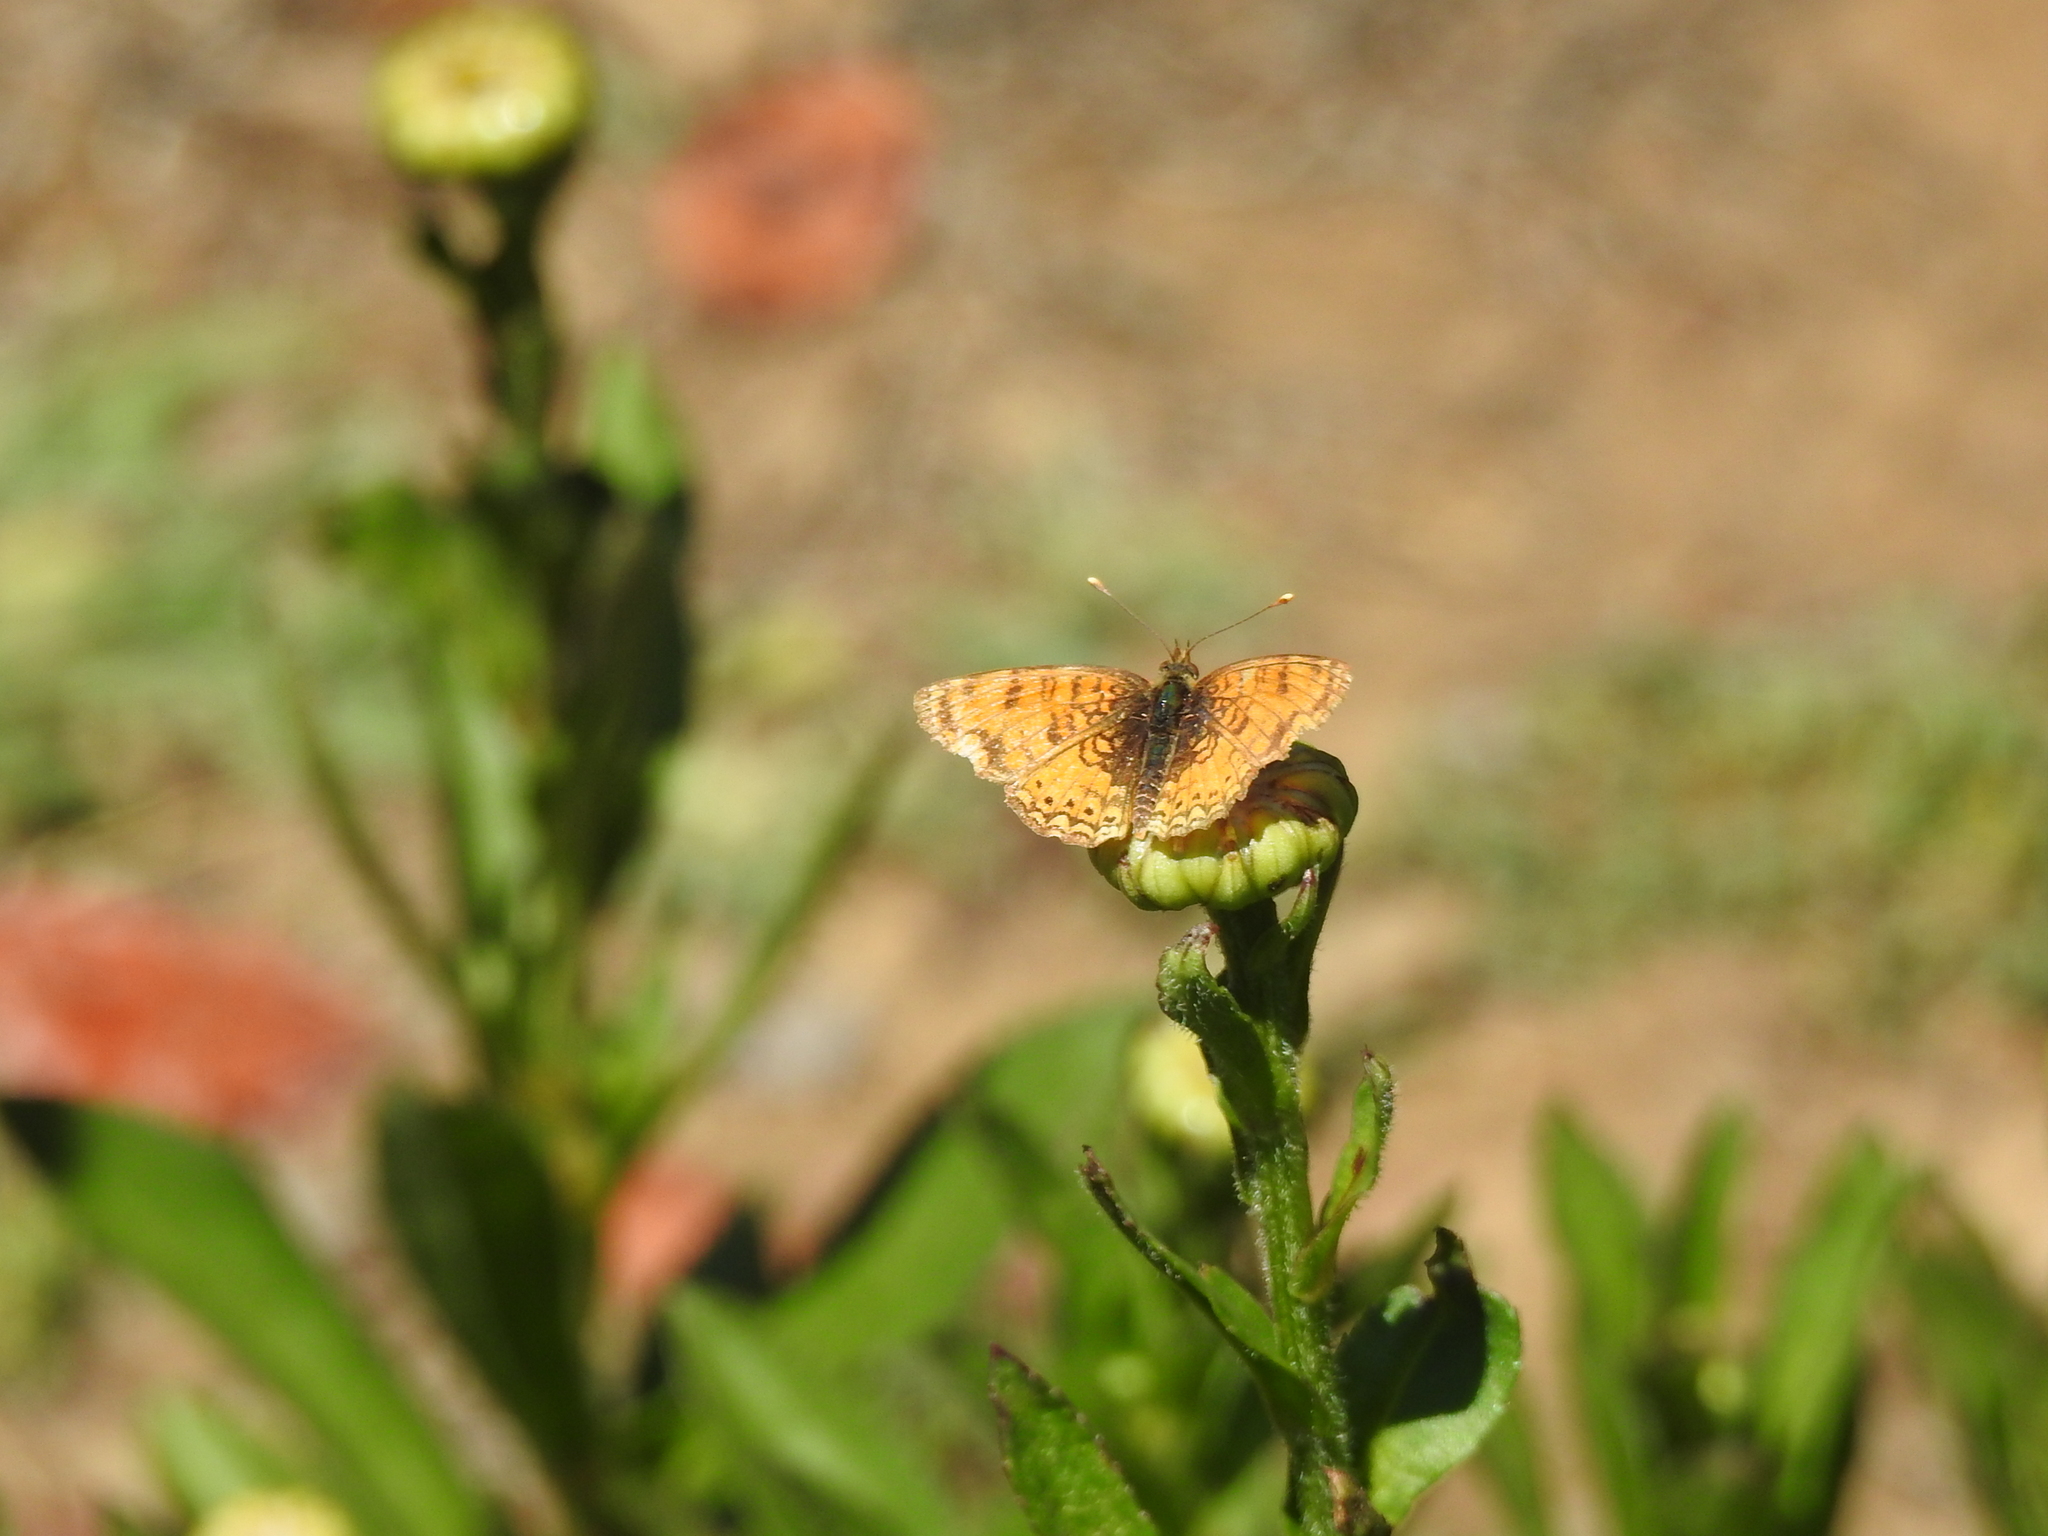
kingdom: Animalia
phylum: Arthropoda
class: Insecta
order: Lepidoptera
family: Nymphalidae
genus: Eresia
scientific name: Eresia aveyrona
